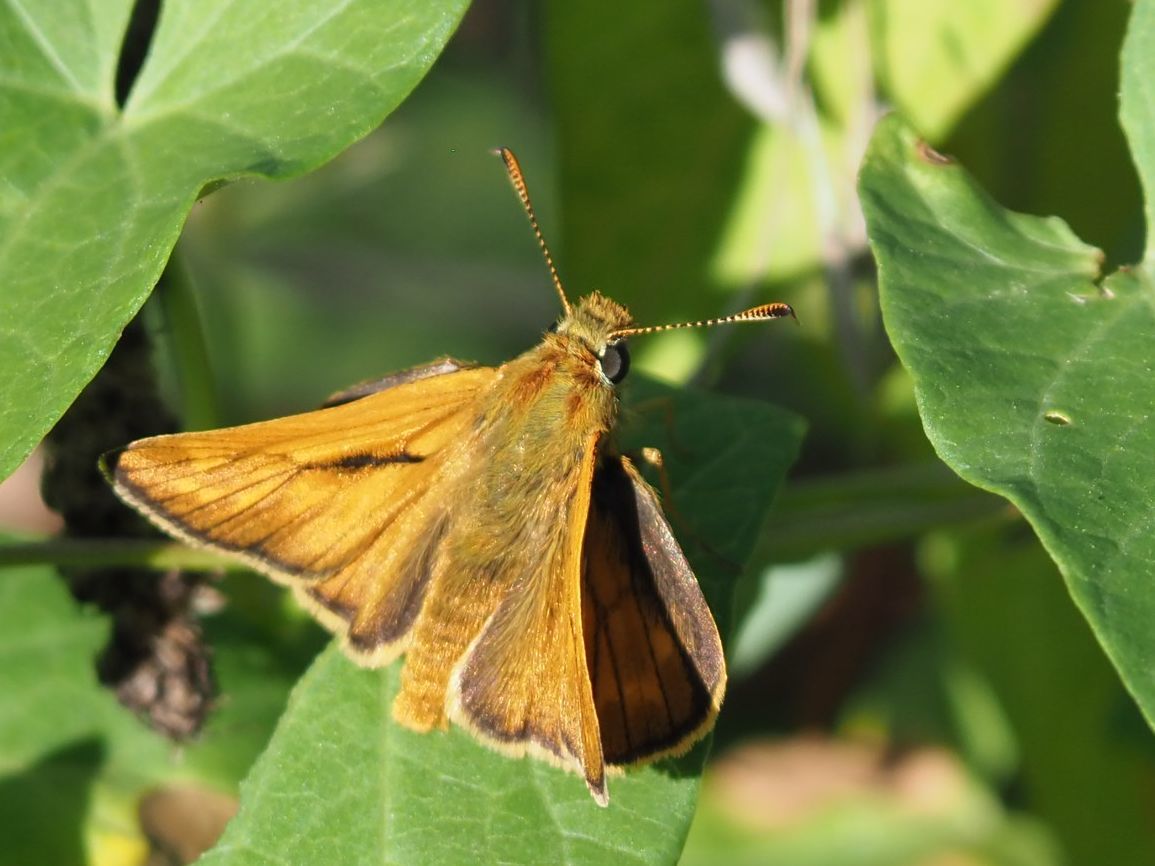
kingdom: Animalia
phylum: Arthropoda
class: Insecta
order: Lepidoptera
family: Hesperiidae
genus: Ochlodes
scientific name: Ochlodes venata
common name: Large skipper
